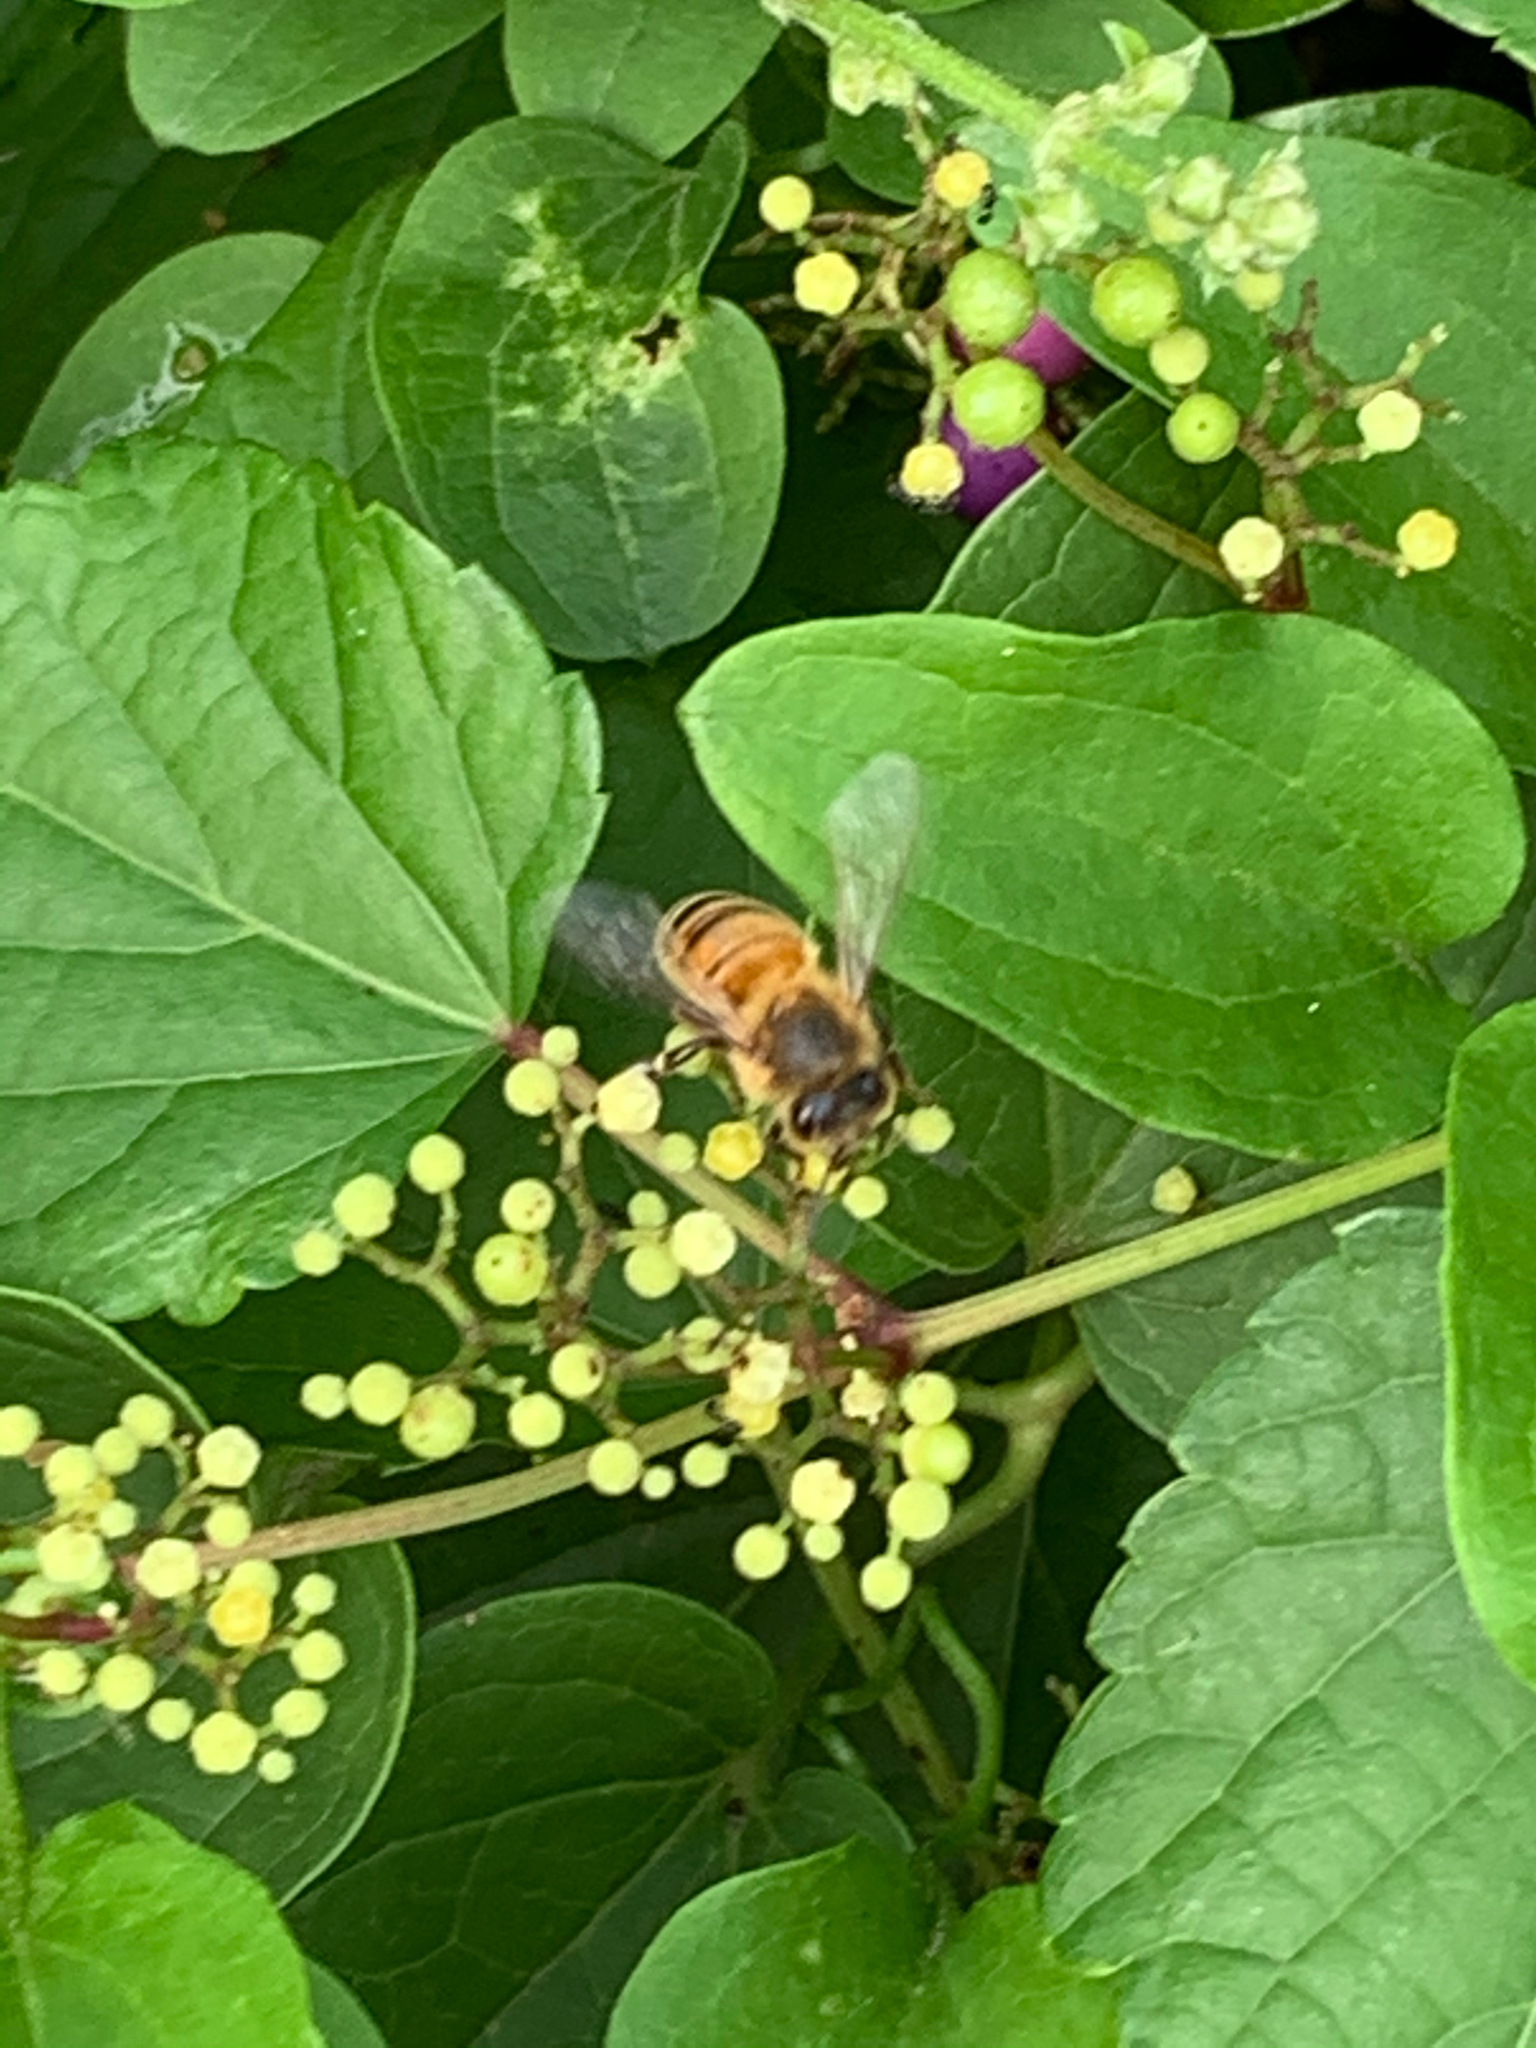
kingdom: Animalia
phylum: Arthropoda
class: Insecta
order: Hymenoptera
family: Apidae
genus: Apis
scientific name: Apis mellifera
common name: Honey bee
